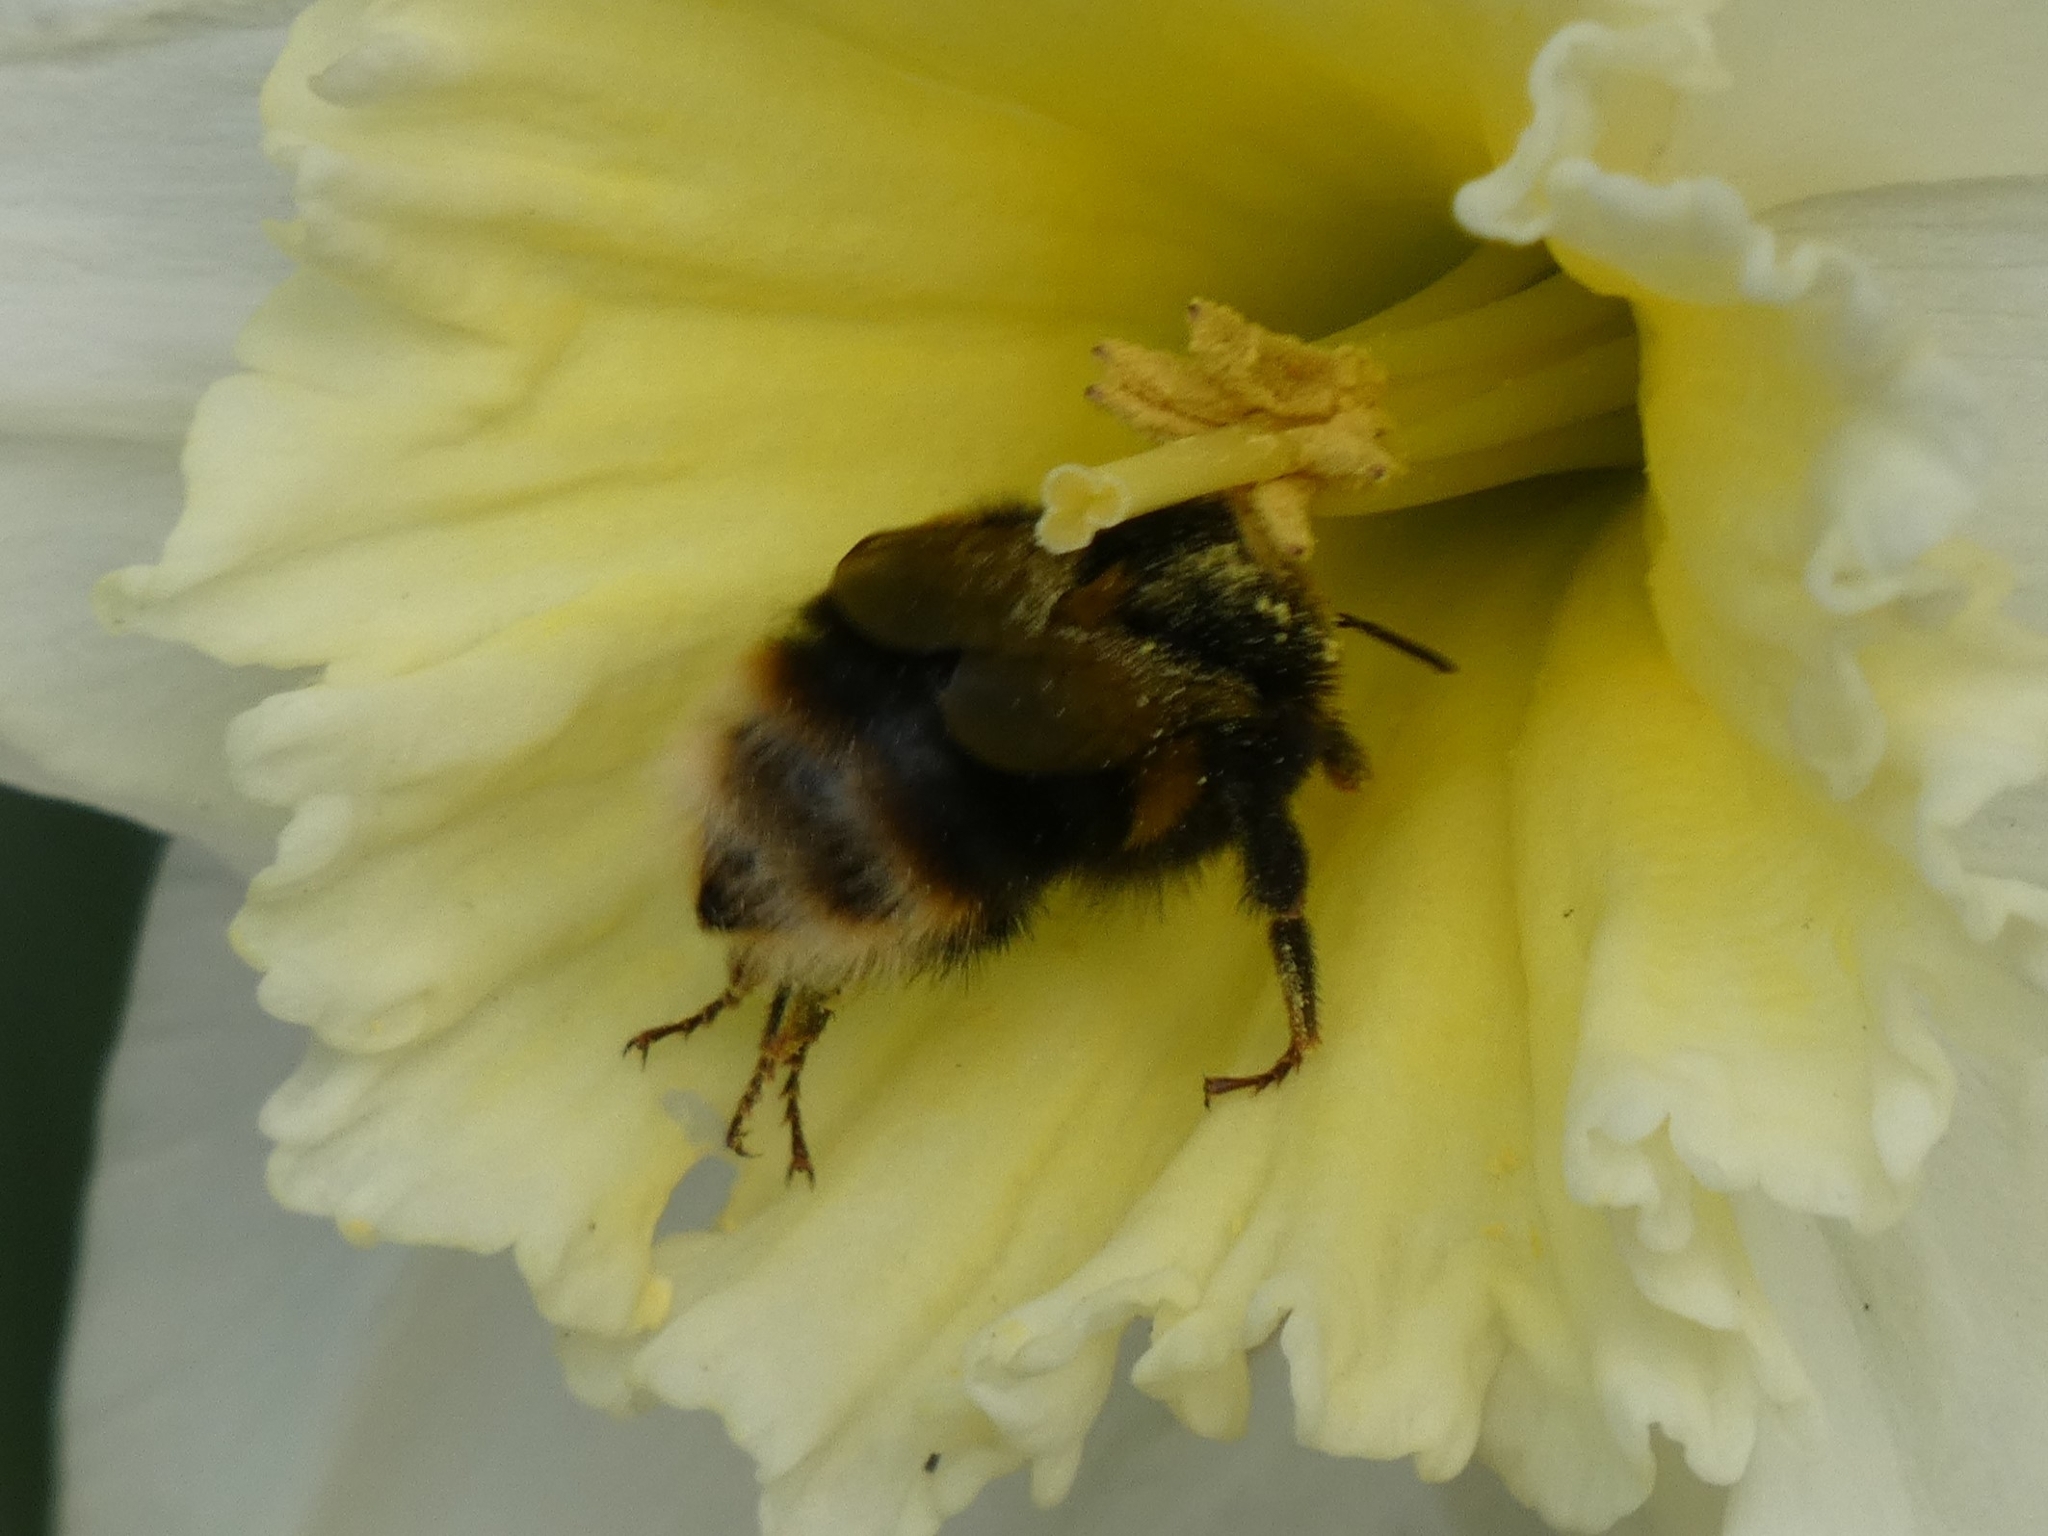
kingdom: Animalia
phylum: Arthropoda
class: Insecta
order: Hymenoptera
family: Apidae
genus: Bombus
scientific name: Bombus terrestris
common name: Buff-tailed bumblebee
